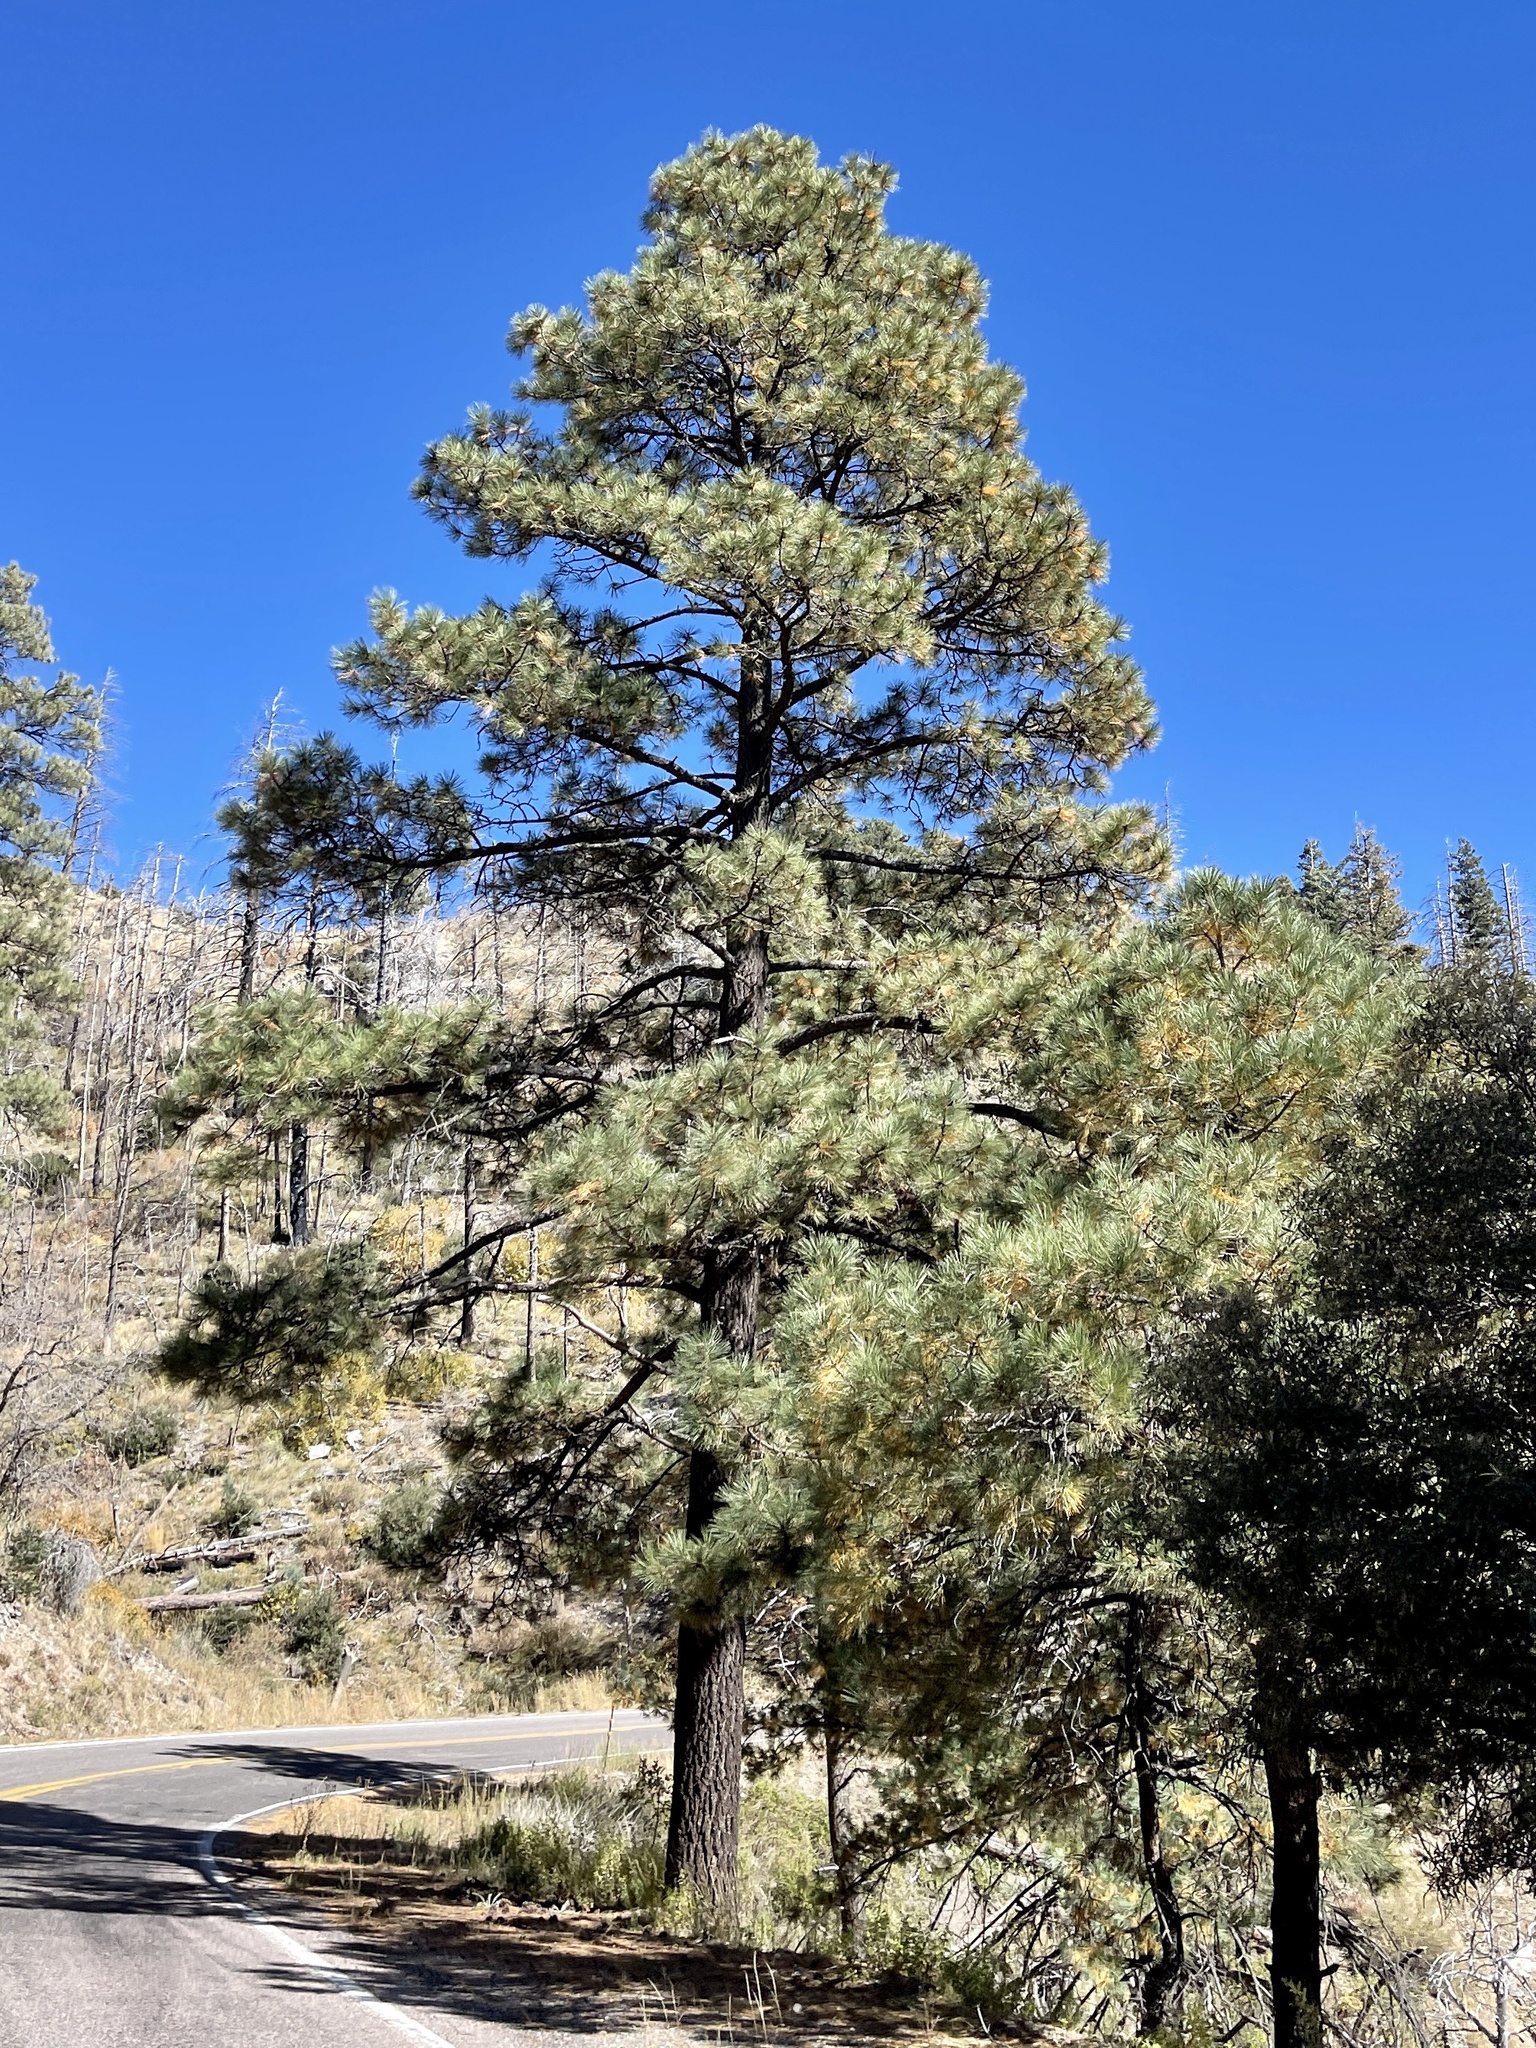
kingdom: Plantae
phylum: Tracheophyta
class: Pinopsida
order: Pinales
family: Pinaceae
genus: Pinus
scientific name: Pinus ponderosa
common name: Western yellow-pine
